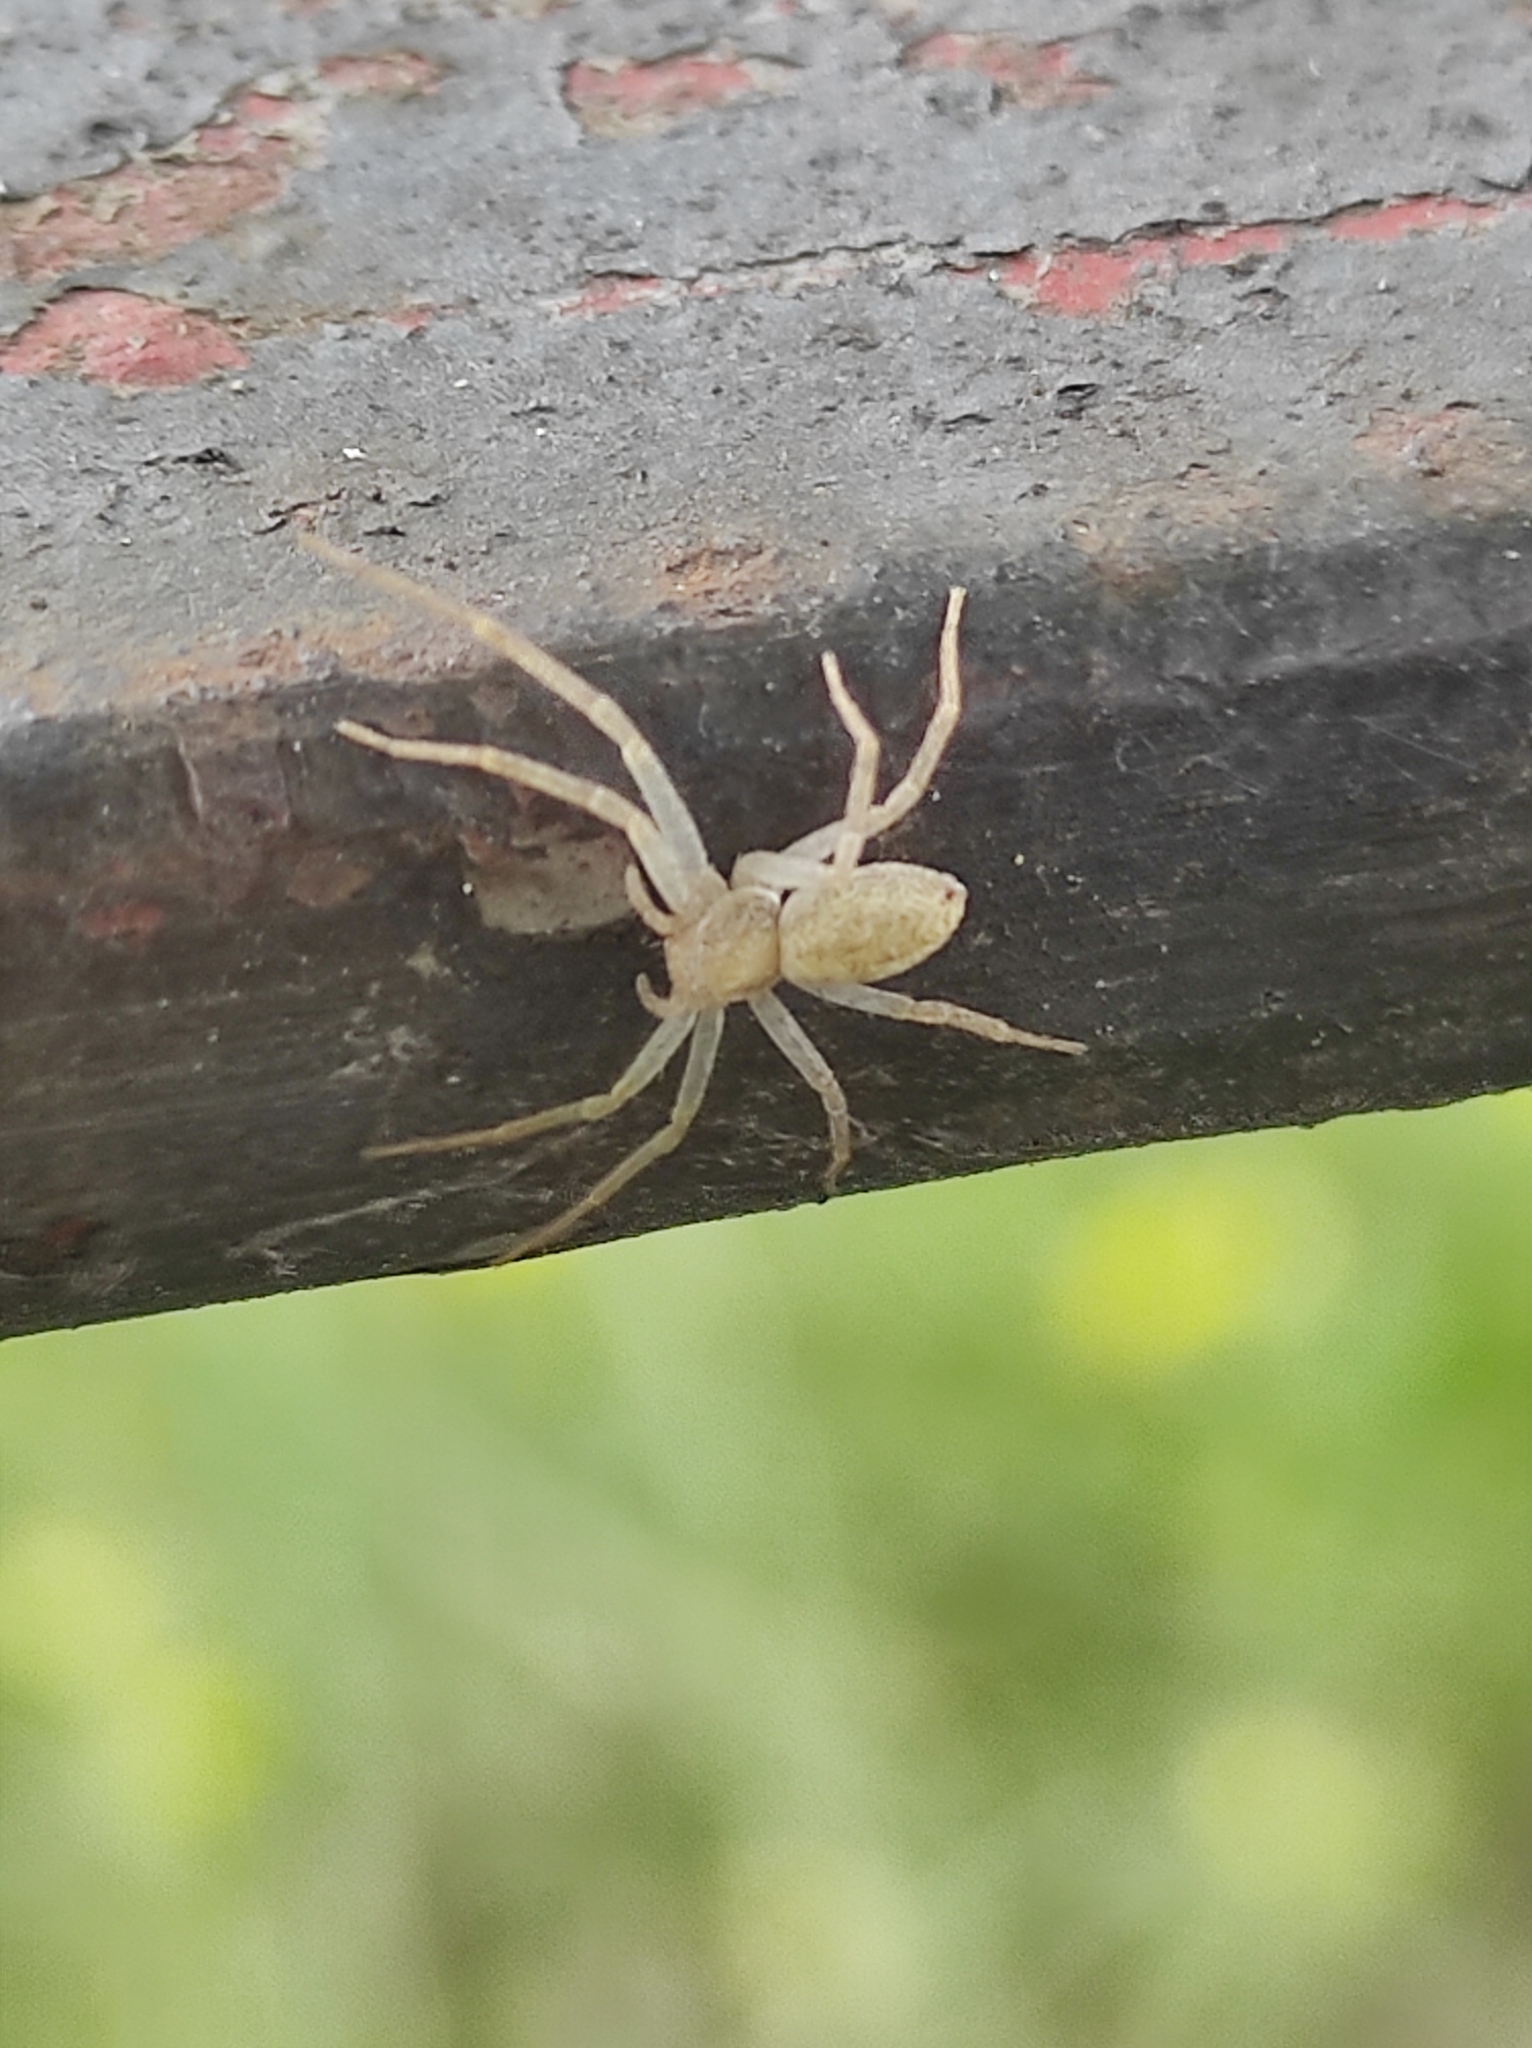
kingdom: Animalia
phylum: Arthropoda
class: Arachnida
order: Araneae
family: Philodromidae
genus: Philodromus
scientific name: Philodromus albidus
